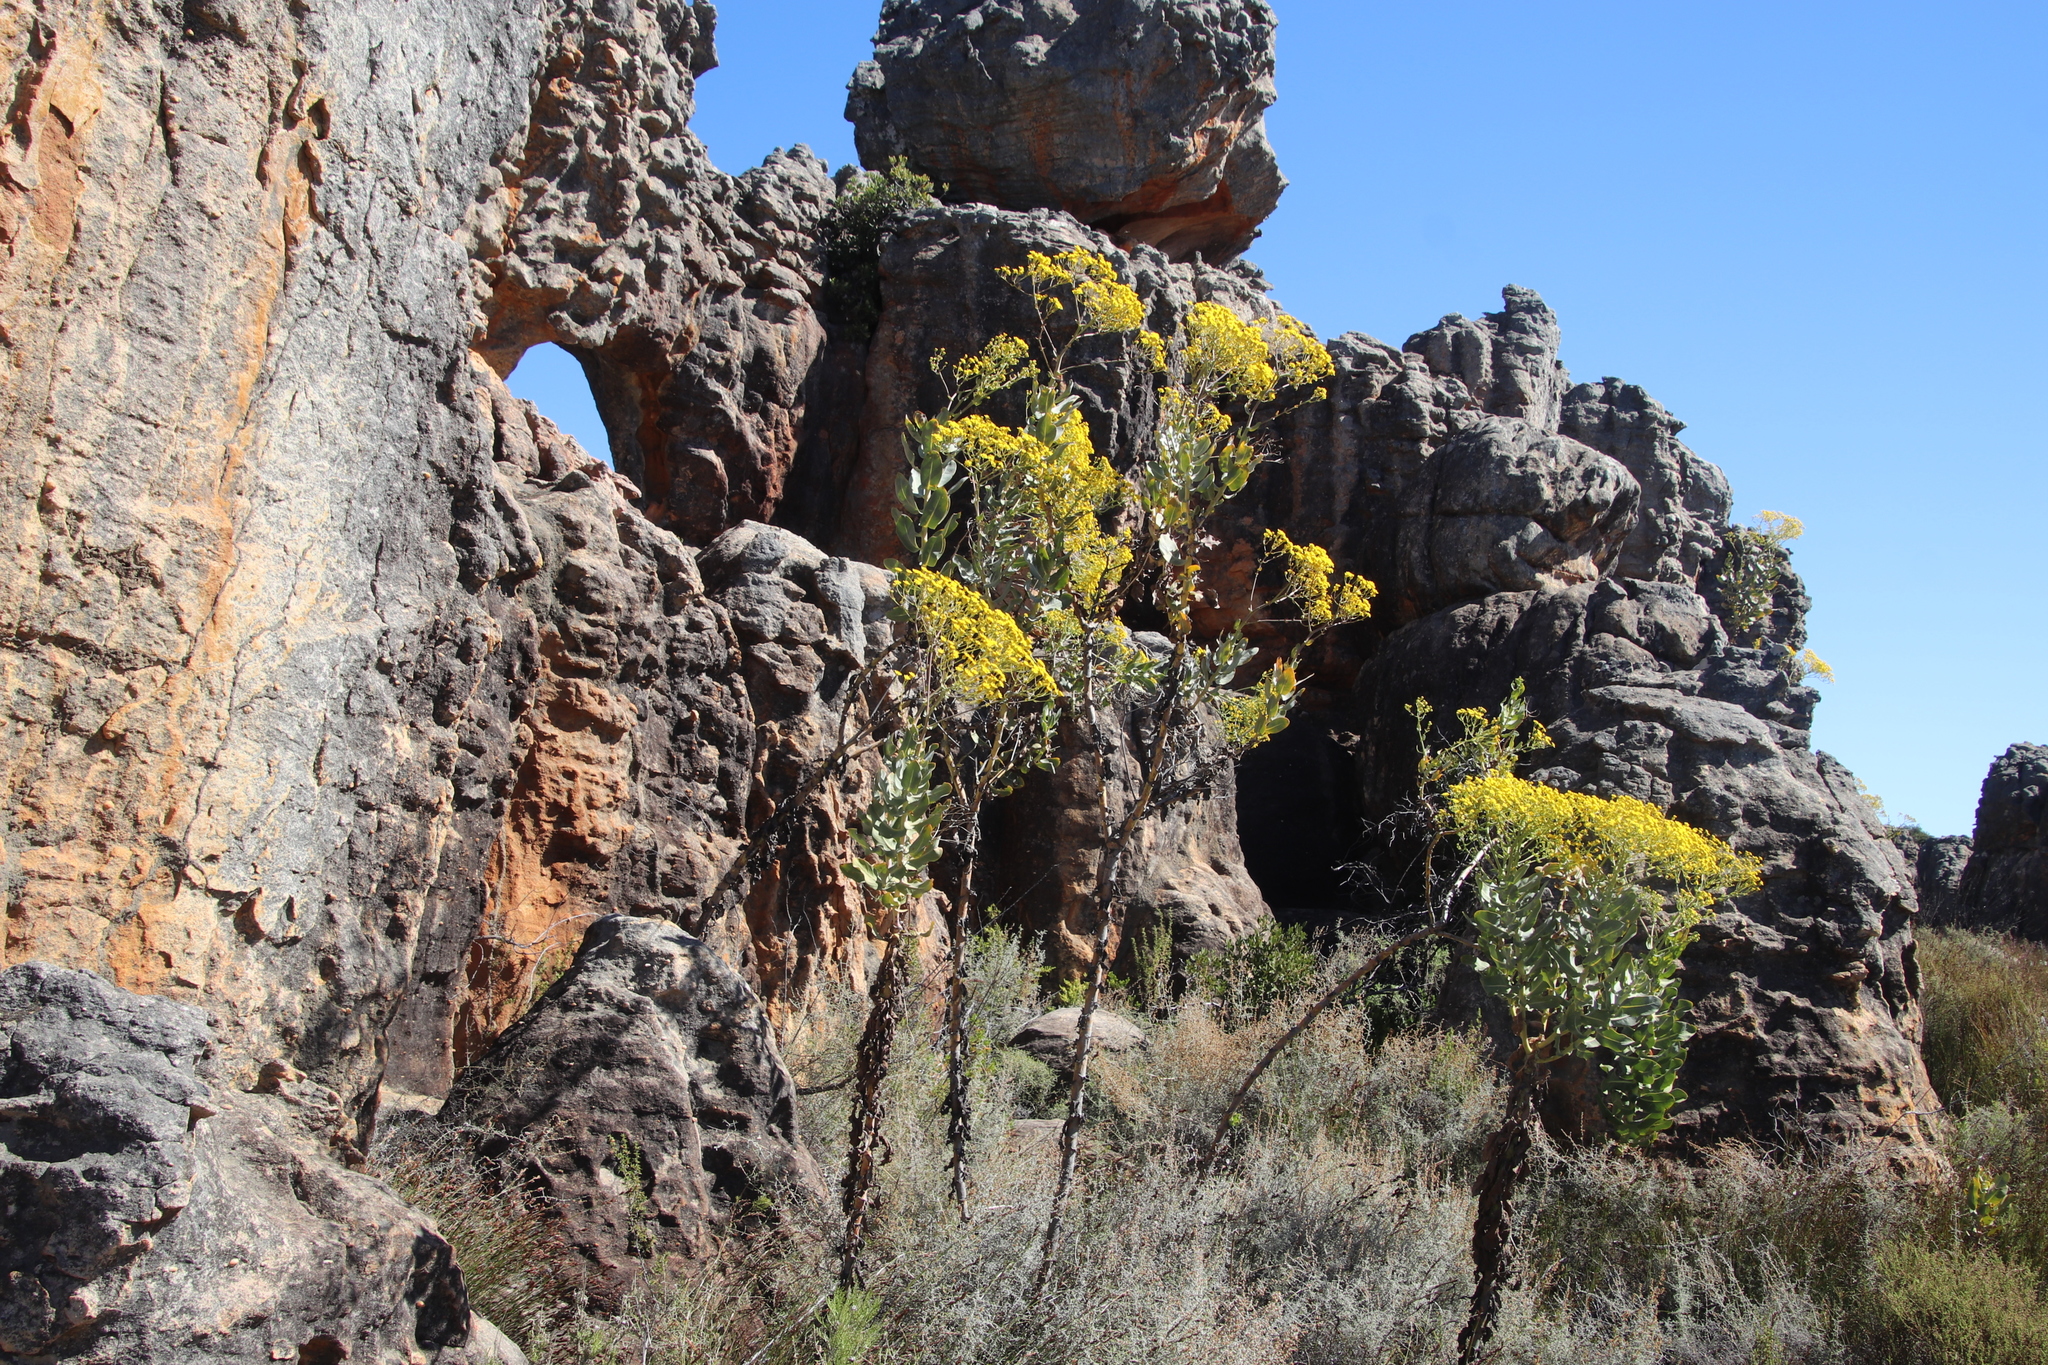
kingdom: Plantae
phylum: Tracheophyta
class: Magnoliopsida
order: Asterales
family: Asteraceae
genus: Othonna
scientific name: Othonna parviflora
